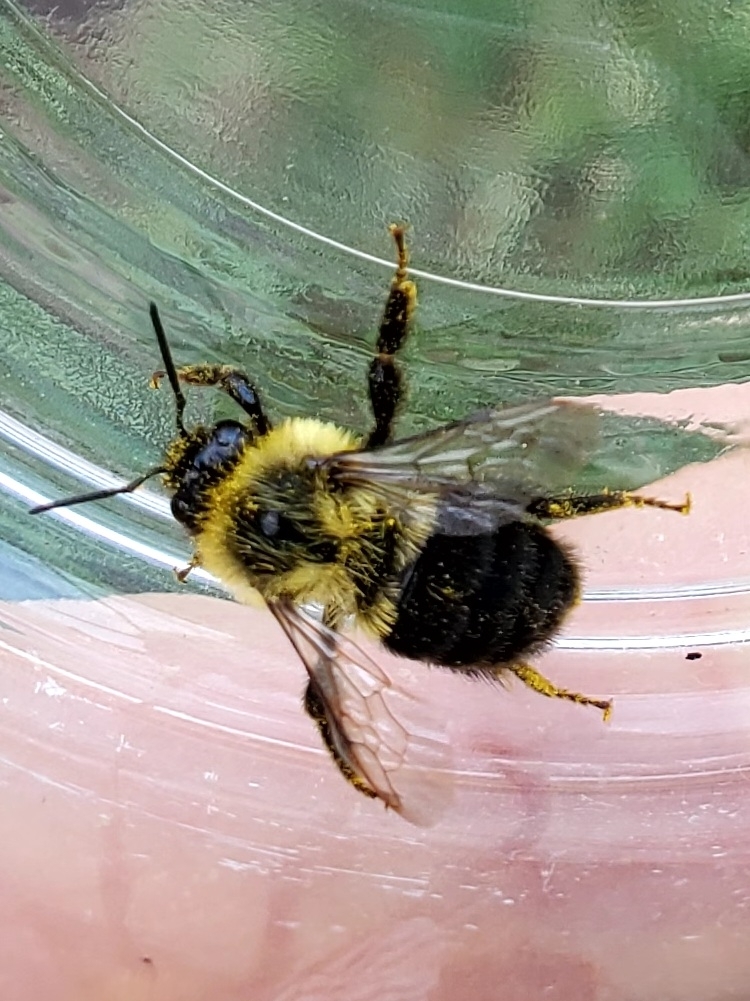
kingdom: Animalia
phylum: Arthropoda
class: Insecta
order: Hymenoptera
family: Apidae
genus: Bombus
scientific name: Bombus impatiens
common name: Common eastern bumble bee
